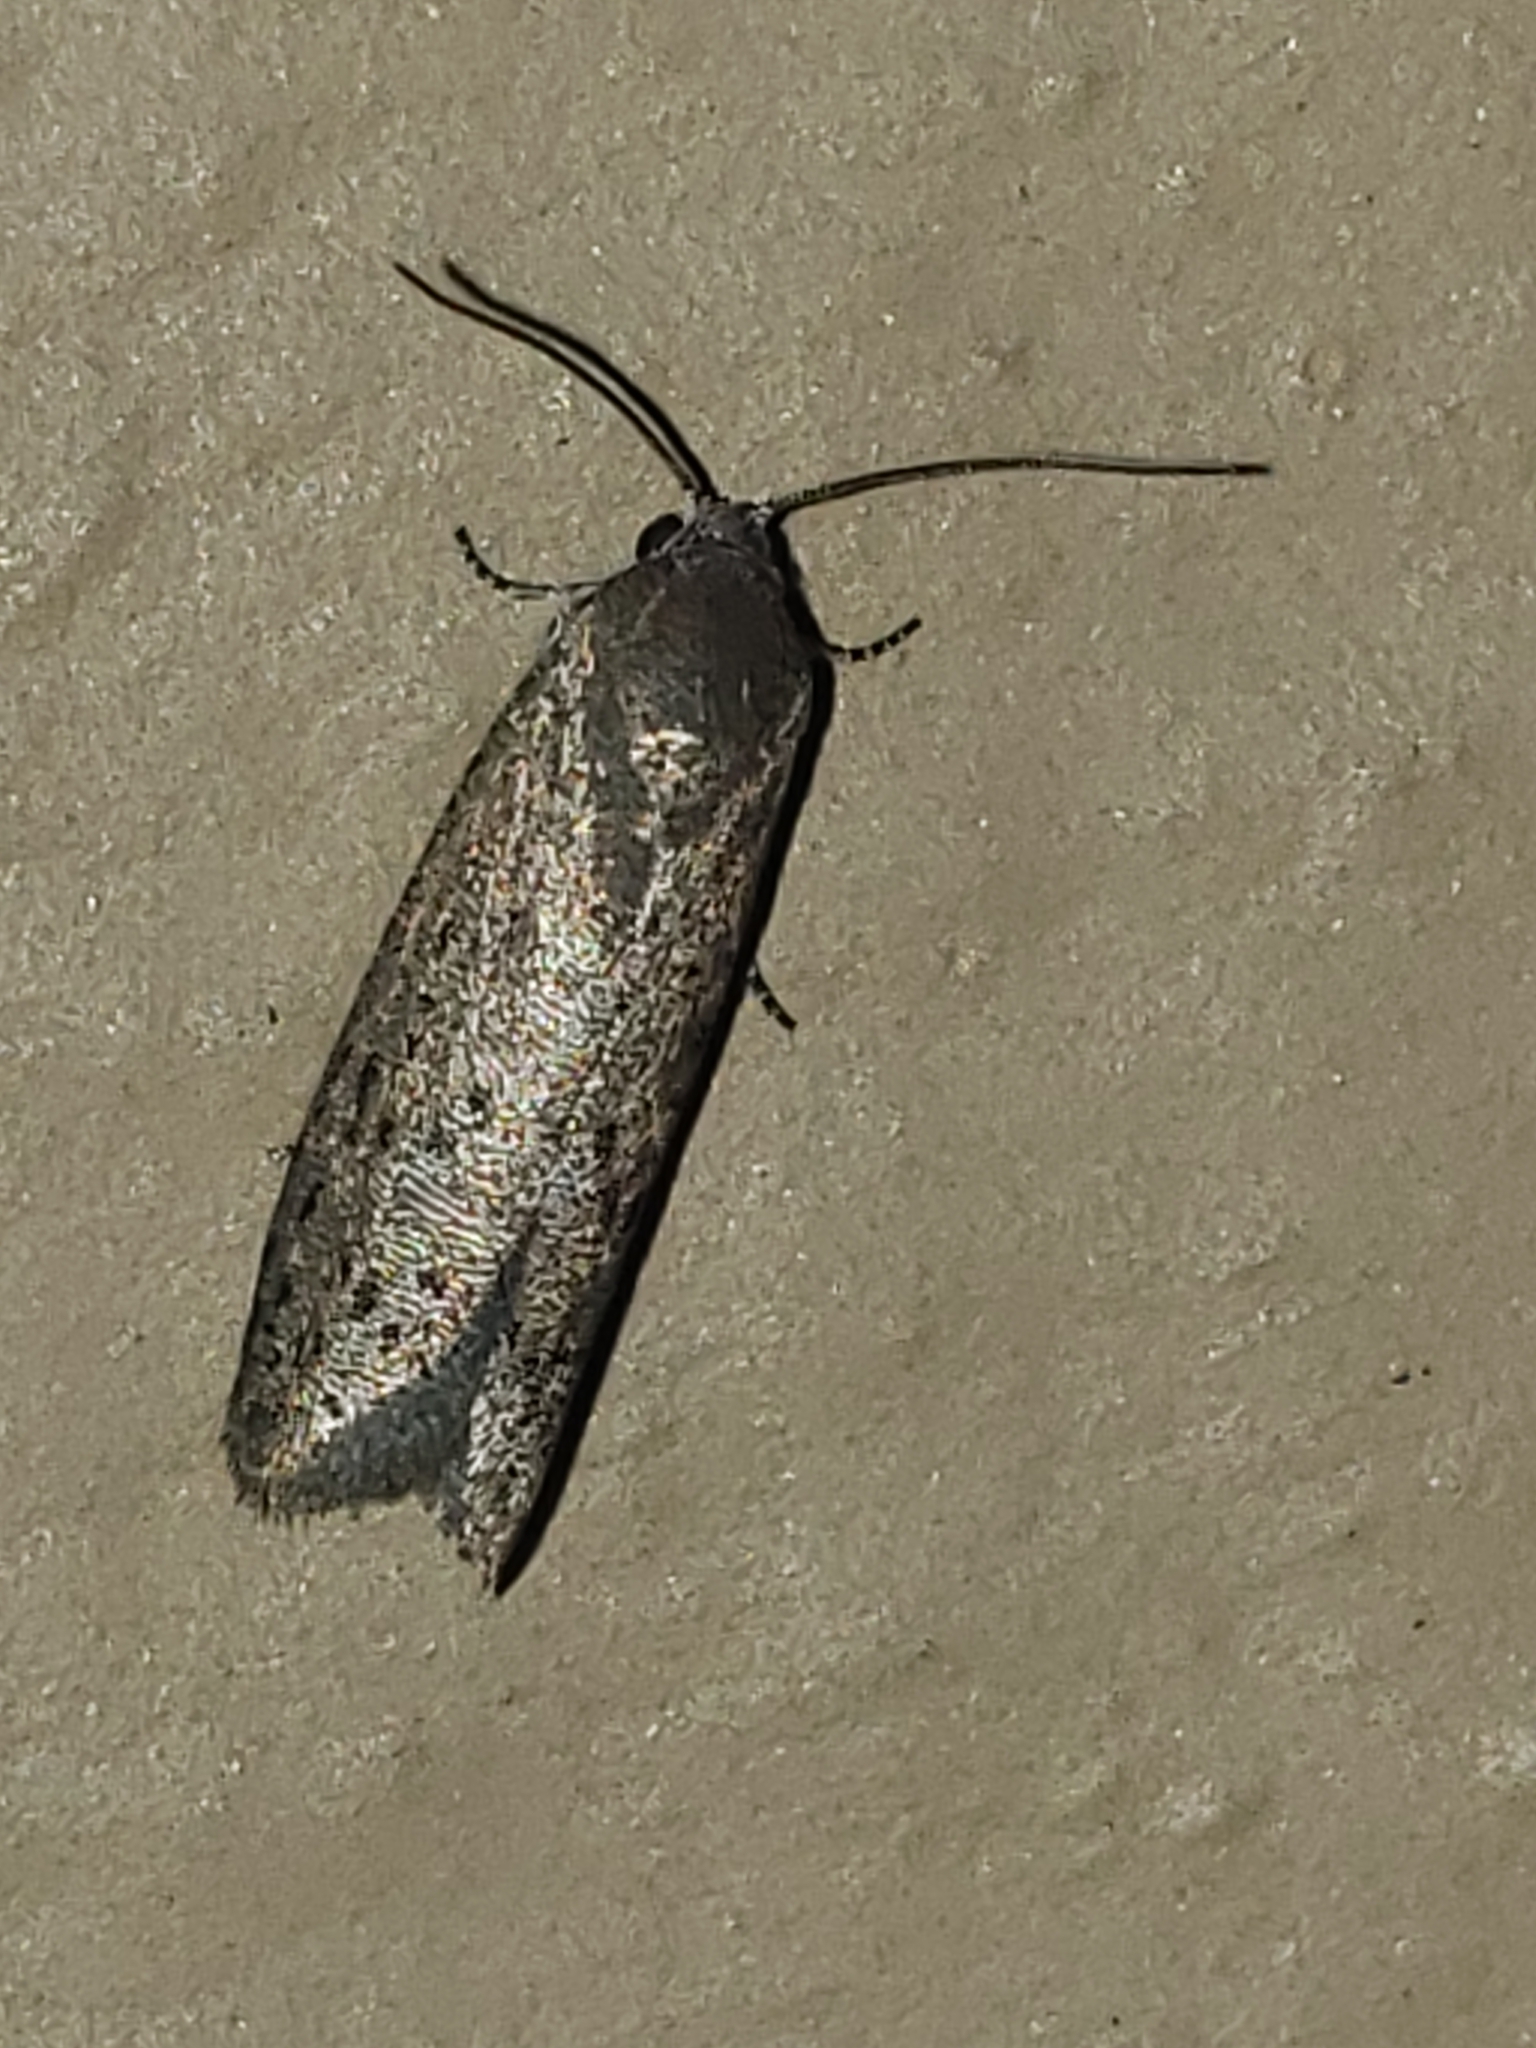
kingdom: Animalia
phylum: Arthropoda
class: Insecta
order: Lepidoptera
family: Galacticidae
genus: Homadaula
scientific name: Homadaula anisocentra
